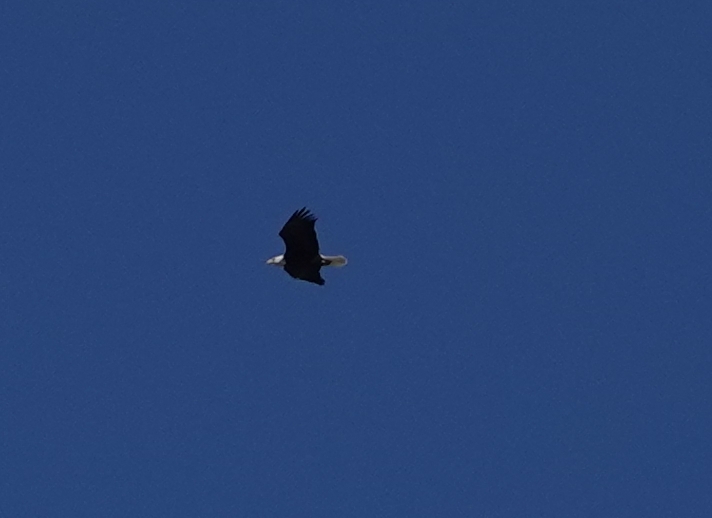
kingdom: Animalia
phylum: Chordata
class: Aves
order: Accipitriformes
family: Accipitridae
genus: Haliaeetus
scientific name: Haliaeetus leucocephalus
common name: Bald eagle
